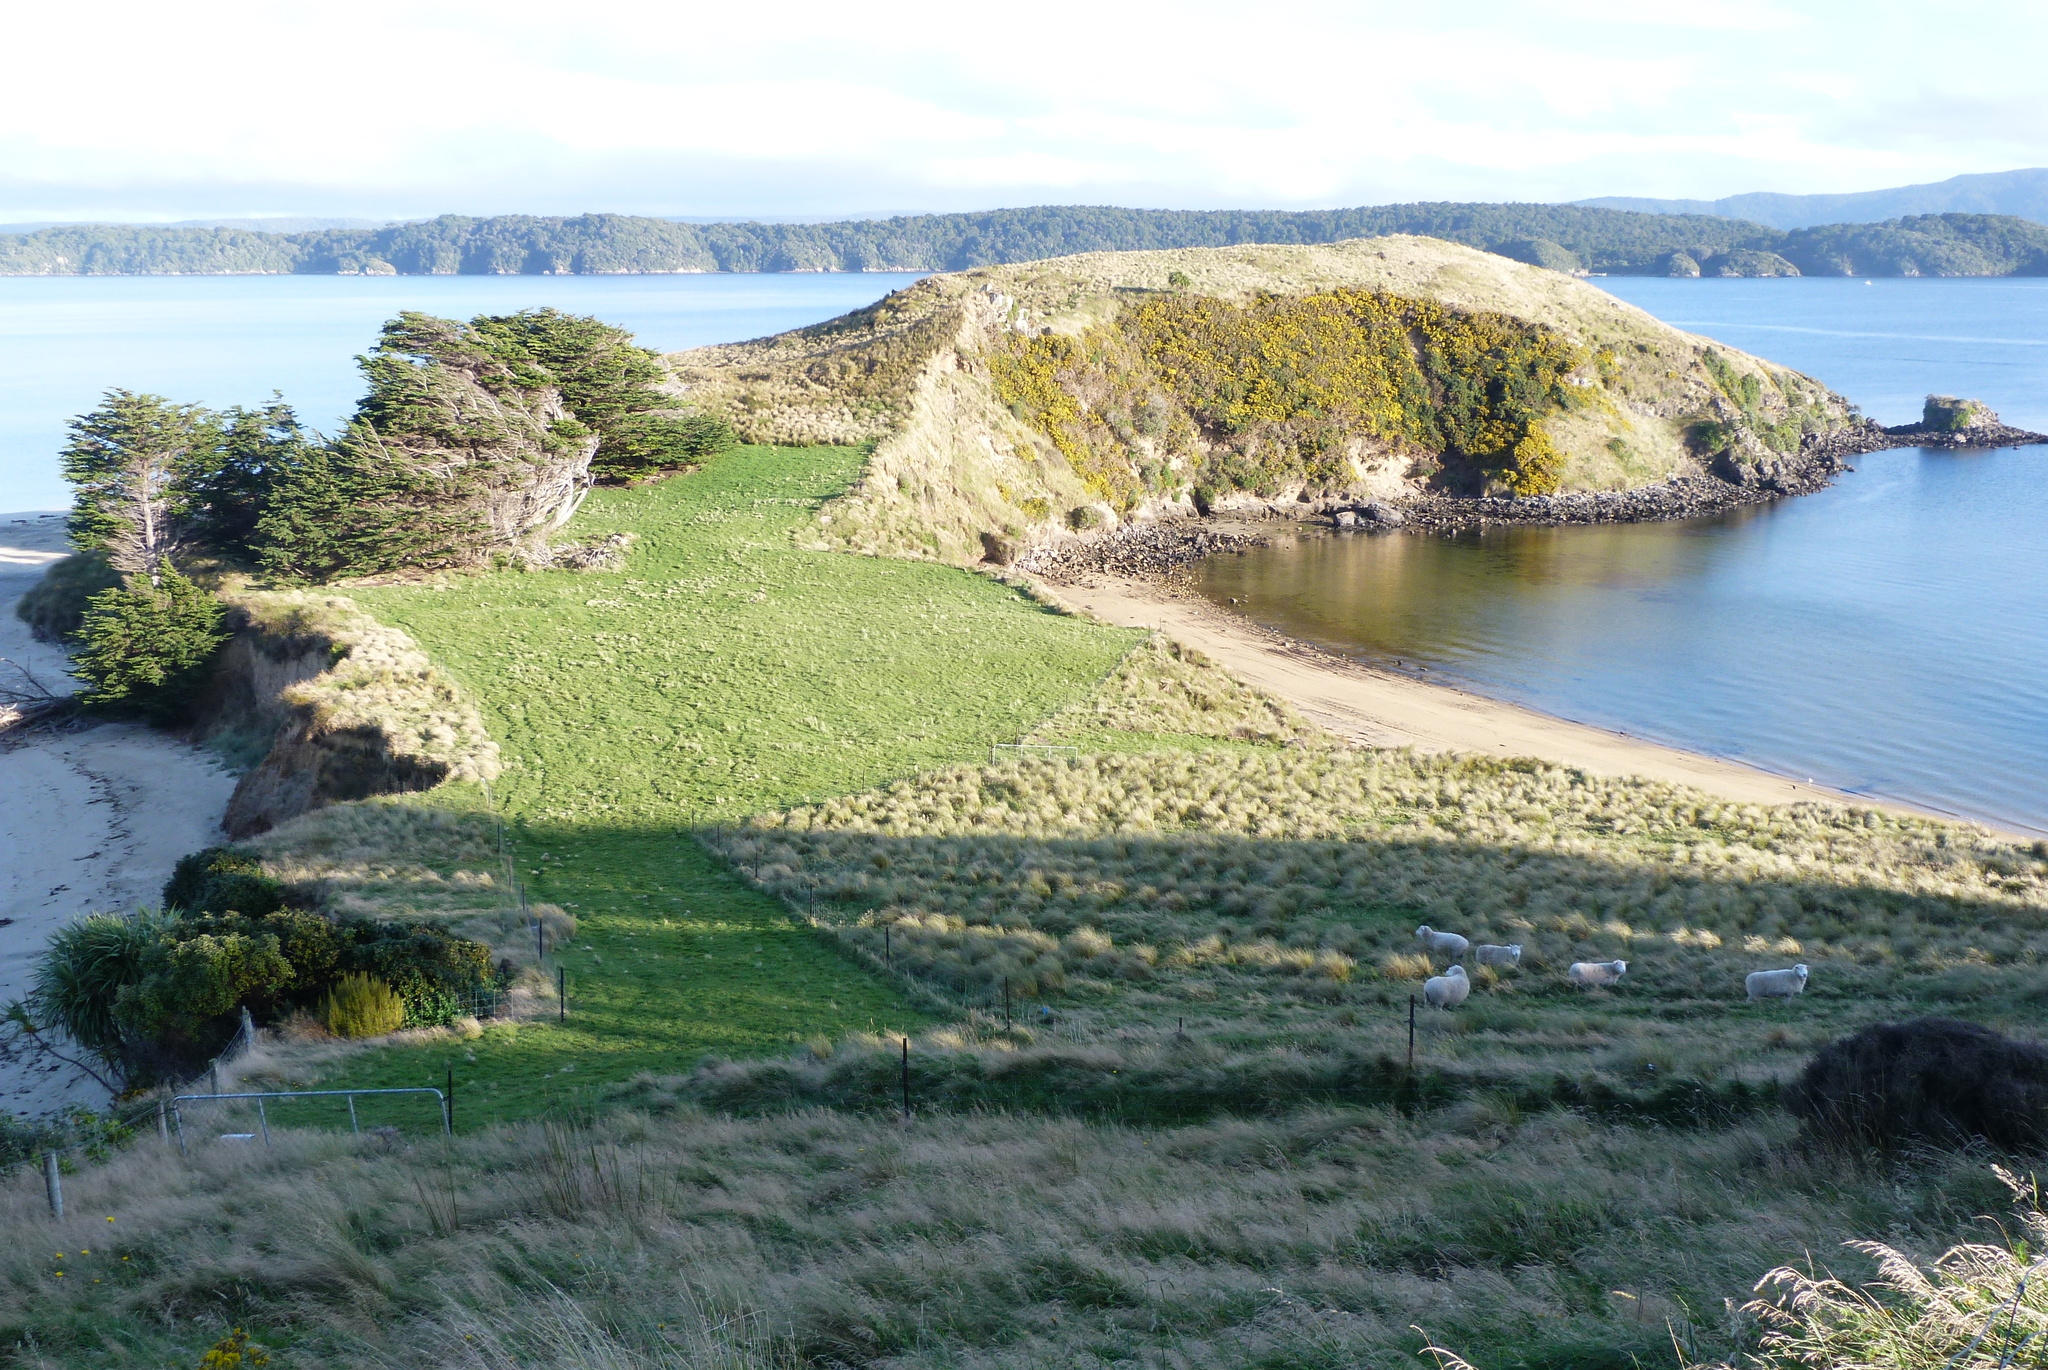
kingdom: Plantae
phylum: Tracheophyta
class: Liliopsida
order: Poales
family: Poaceae
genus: Poa
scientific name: Poa cita
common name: Silver tussock
